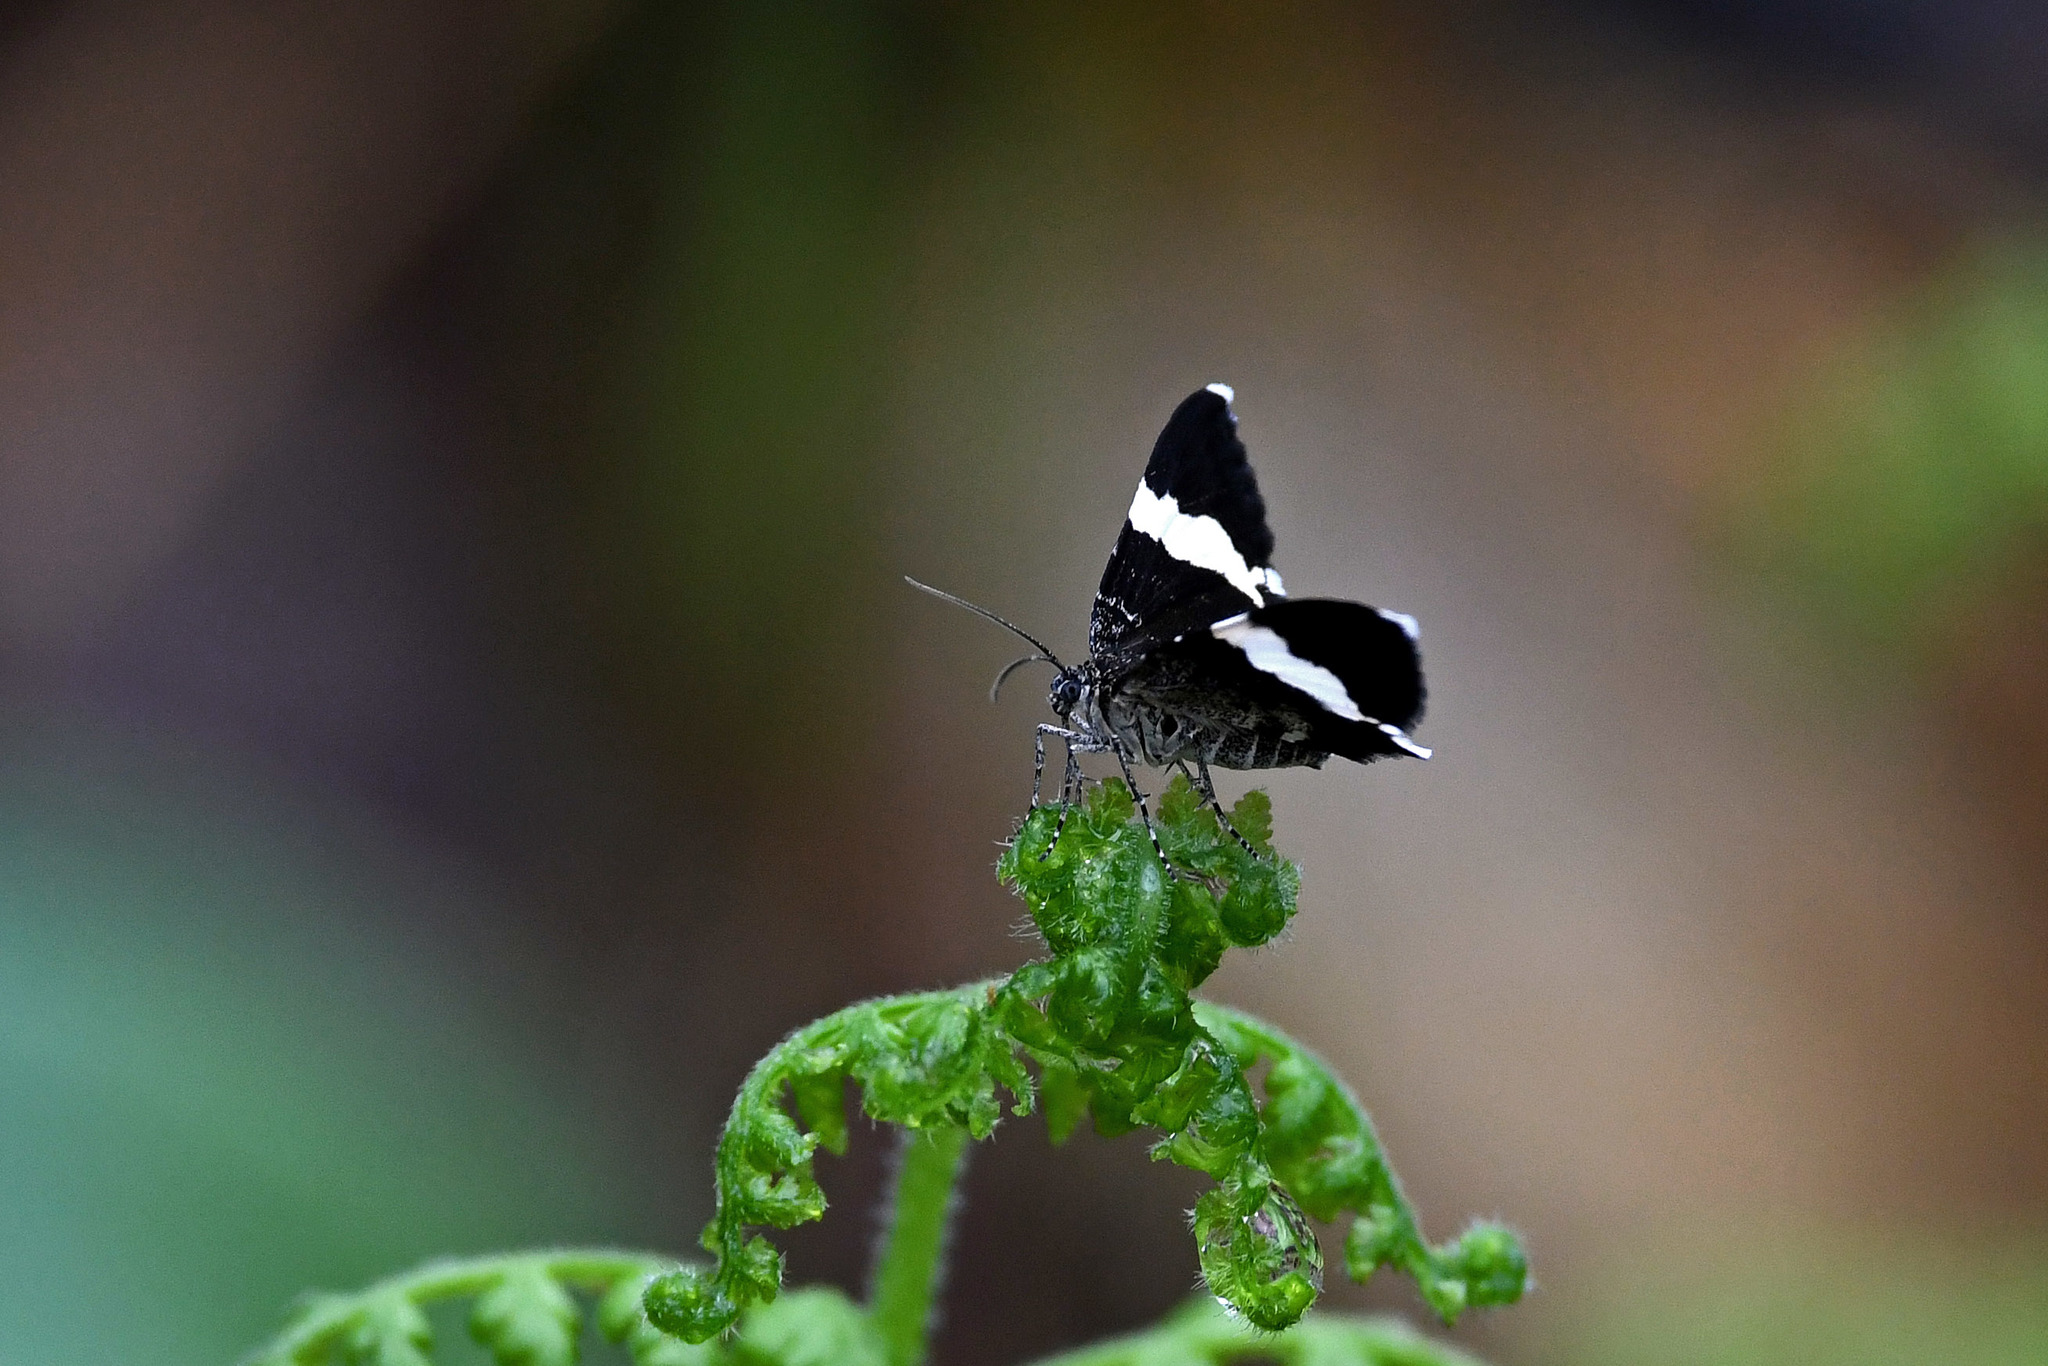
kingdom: Animalia
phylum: Arthropoda
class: Insecta
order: Lepidoptera
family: Geometridae
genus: Trichodezia
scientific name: Trichodezia albovittata
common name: White striped black
